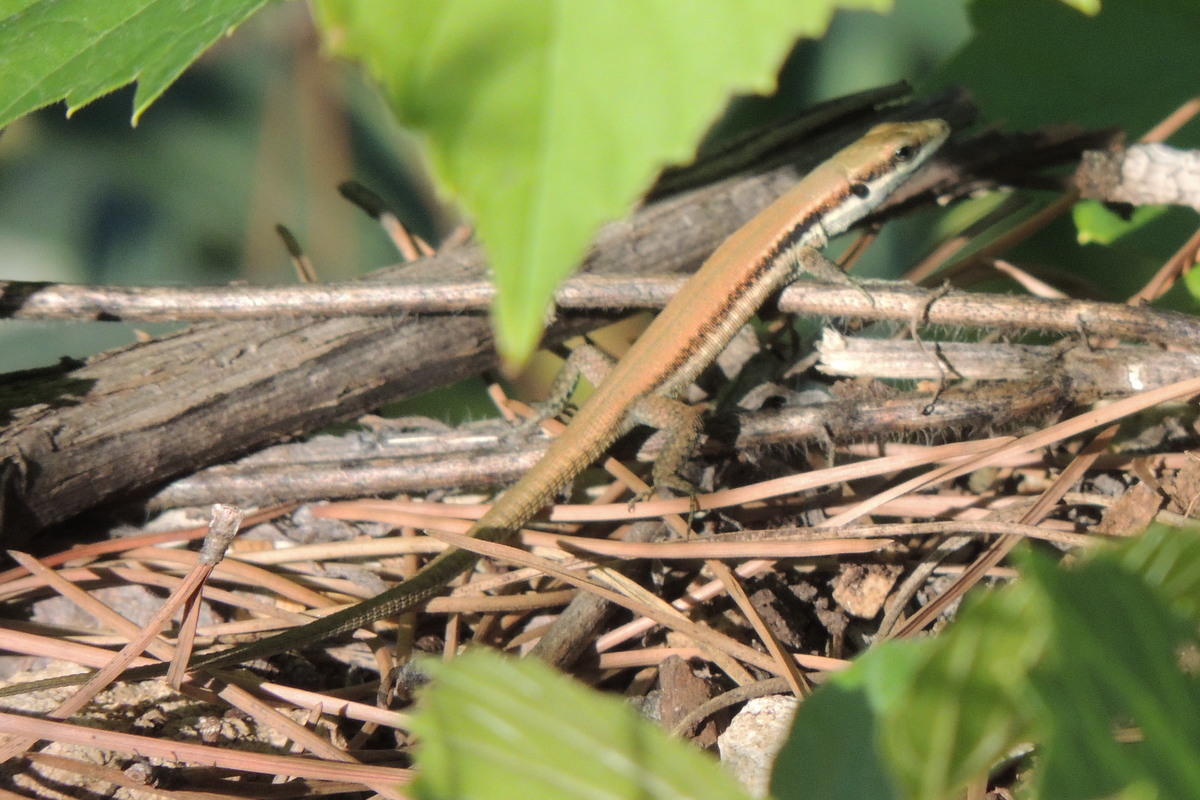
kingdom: Animalia
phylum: Chordata
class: Squamata
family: Lacertidae
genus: Phoenicolacerta
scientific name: Phoenicolacerta laevis
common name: Lebanon lizard
